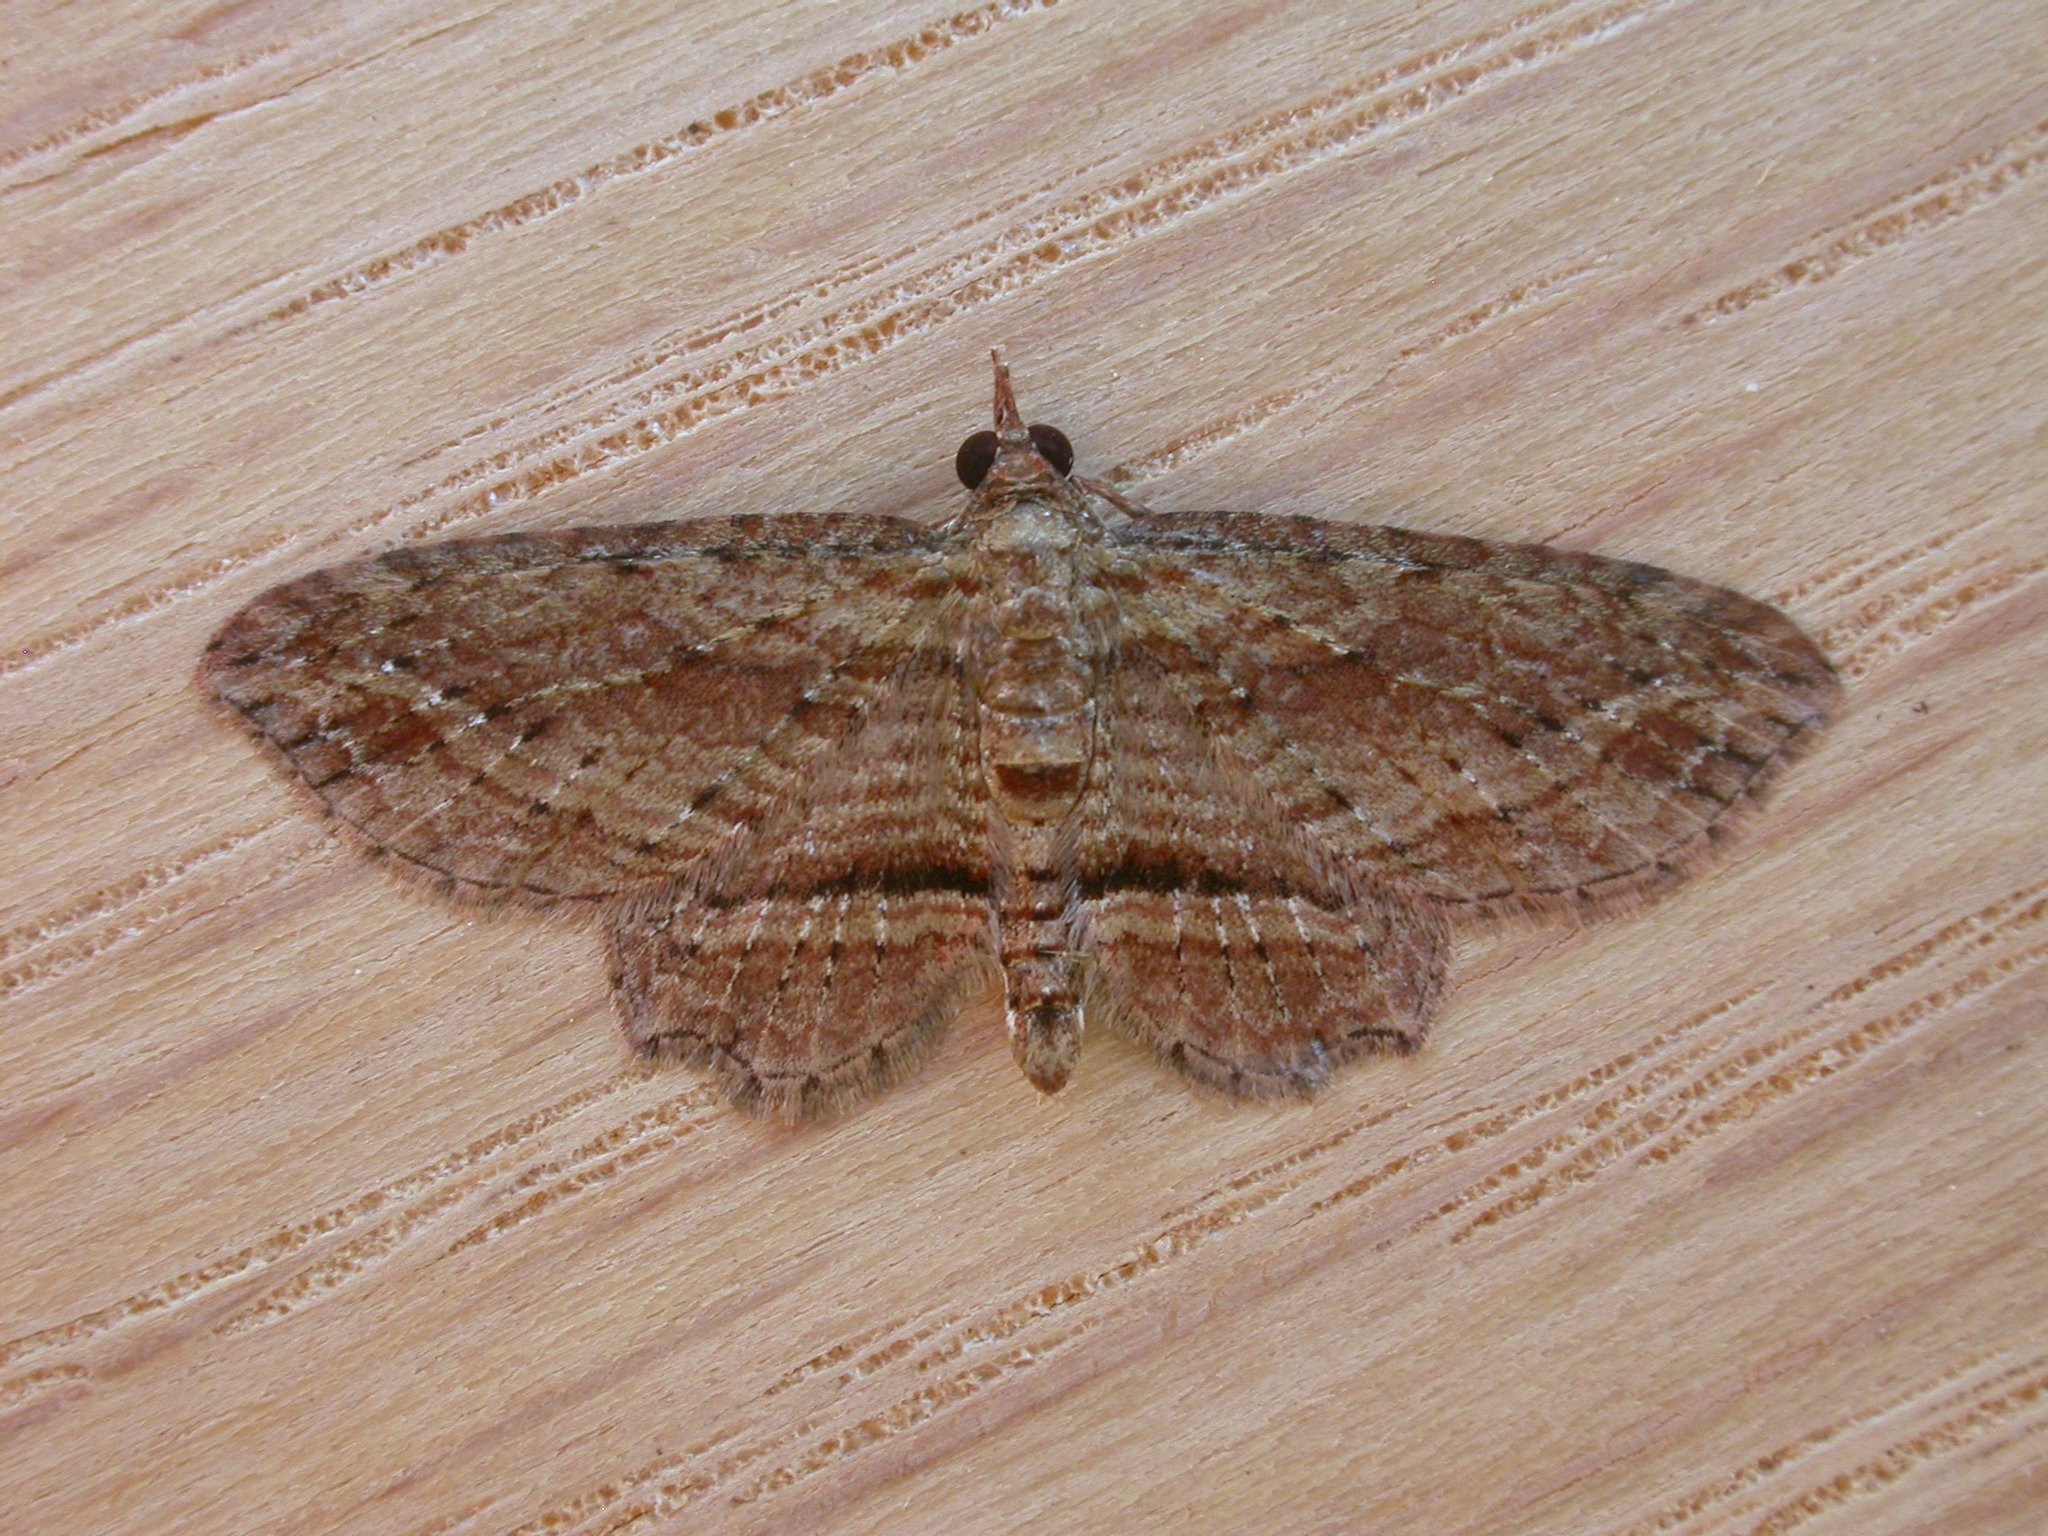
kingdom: Animalia
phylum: Arthropoda
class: Insecta
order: Lepidoptera
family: Geometridae
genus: Chloroclystis
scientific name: Chloroclystis filata
